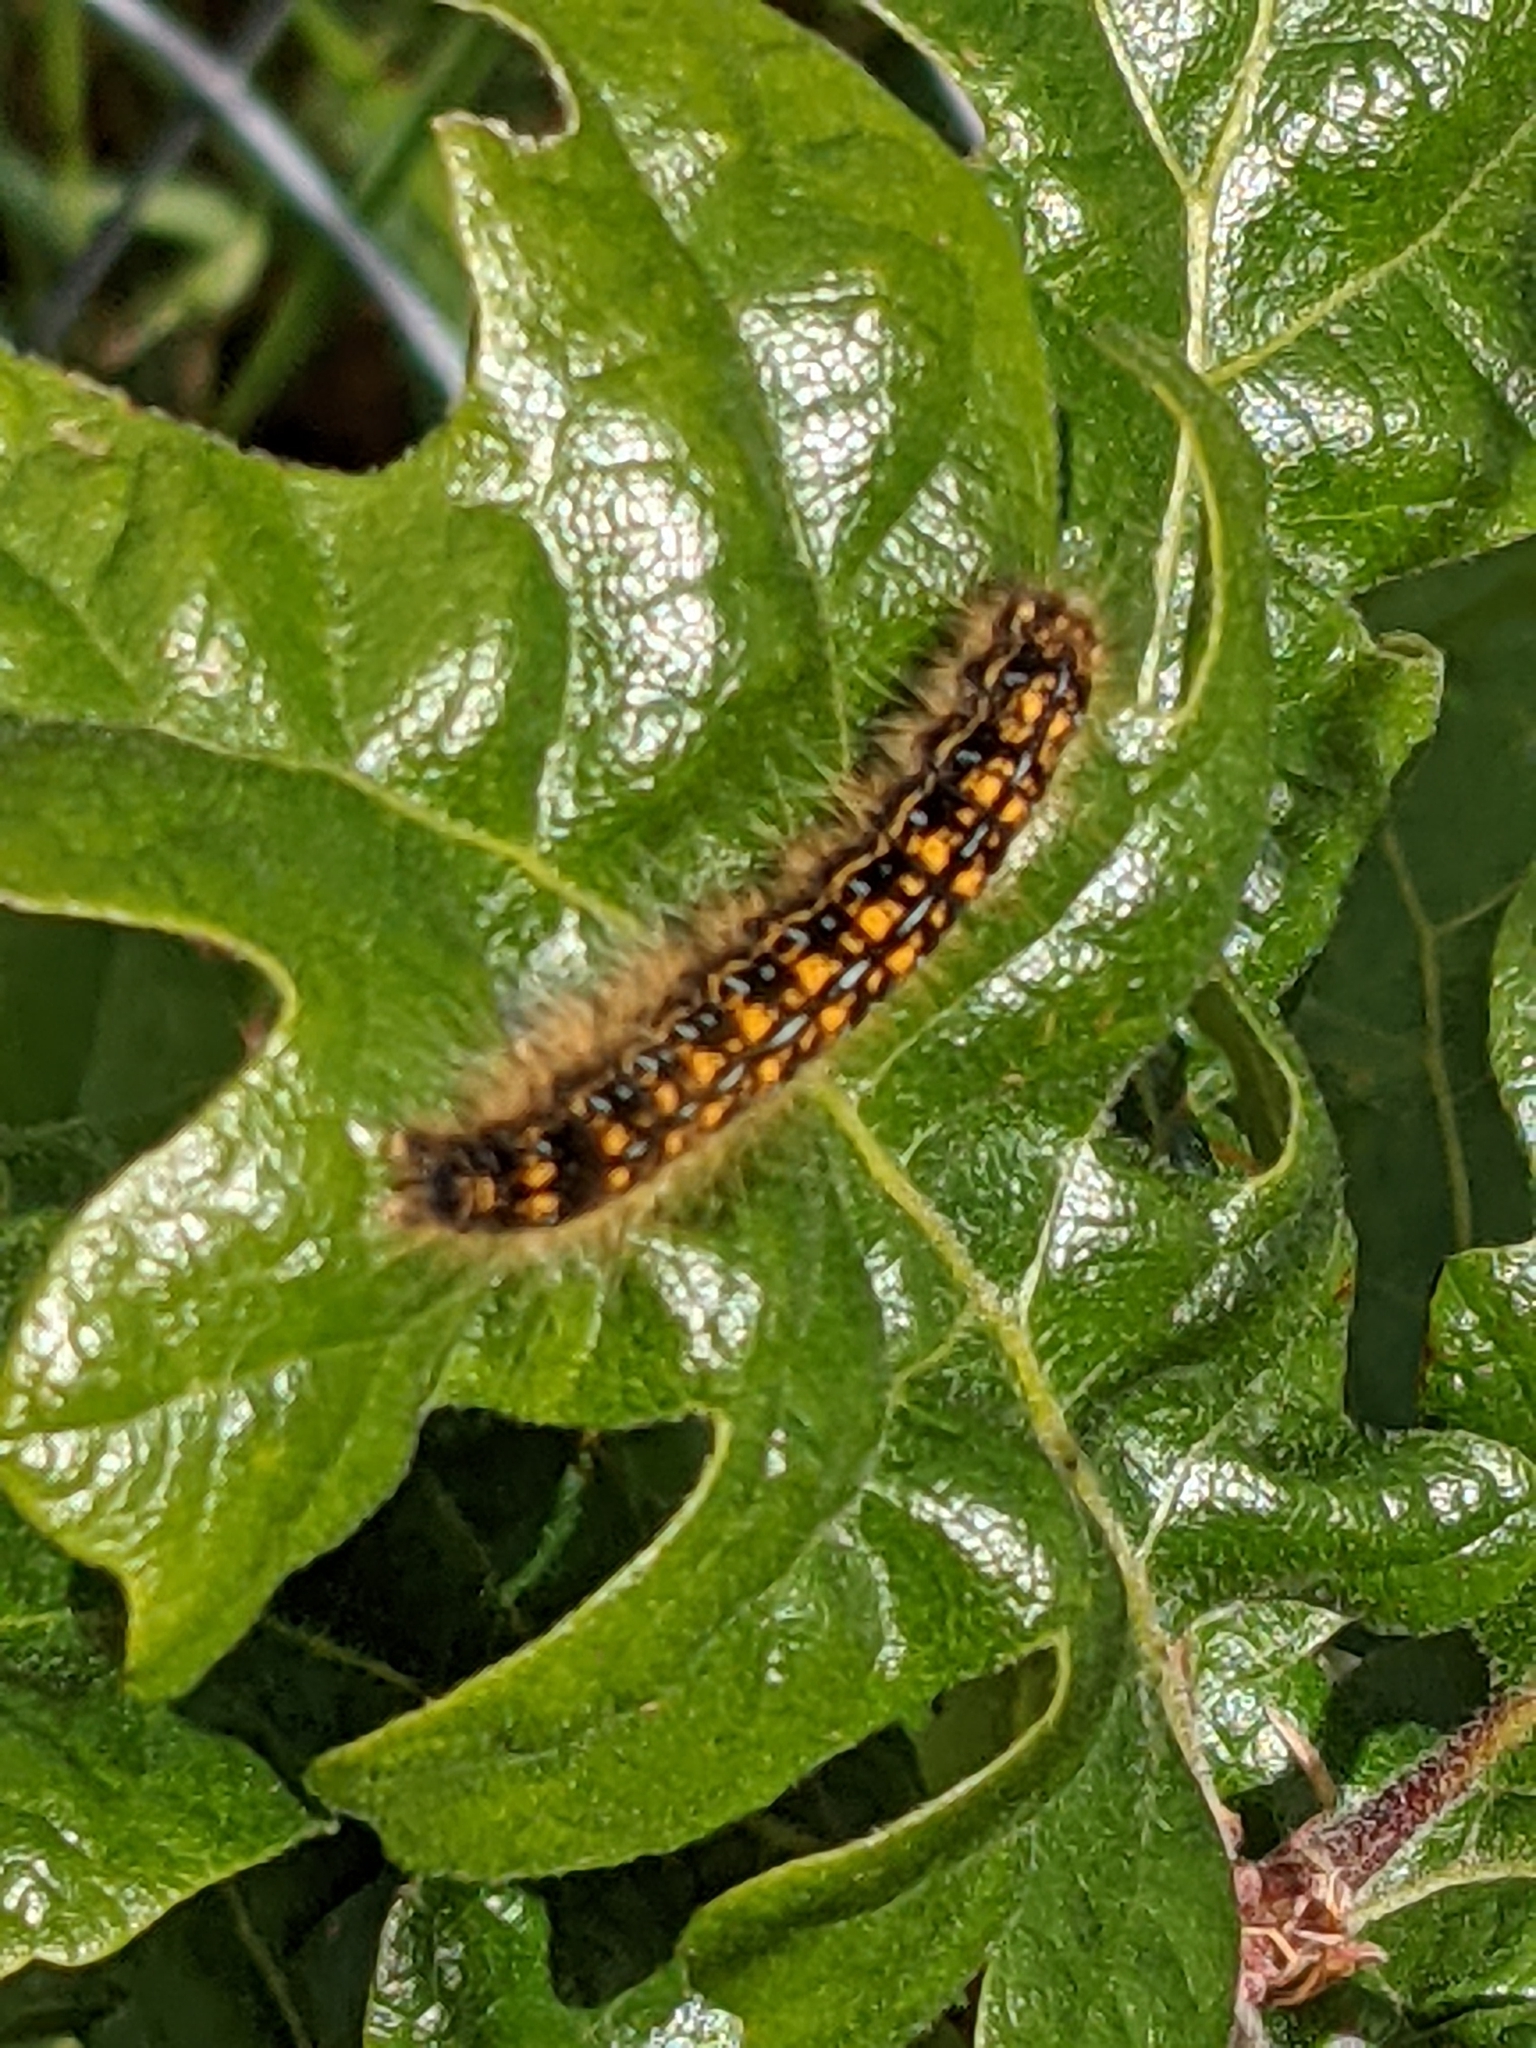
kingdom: Animalia
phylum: Arthropoda
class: Insecta
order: Lepidoptera
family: Lasiocampidae
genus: Malacosoma
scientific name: Malacosoma californica
